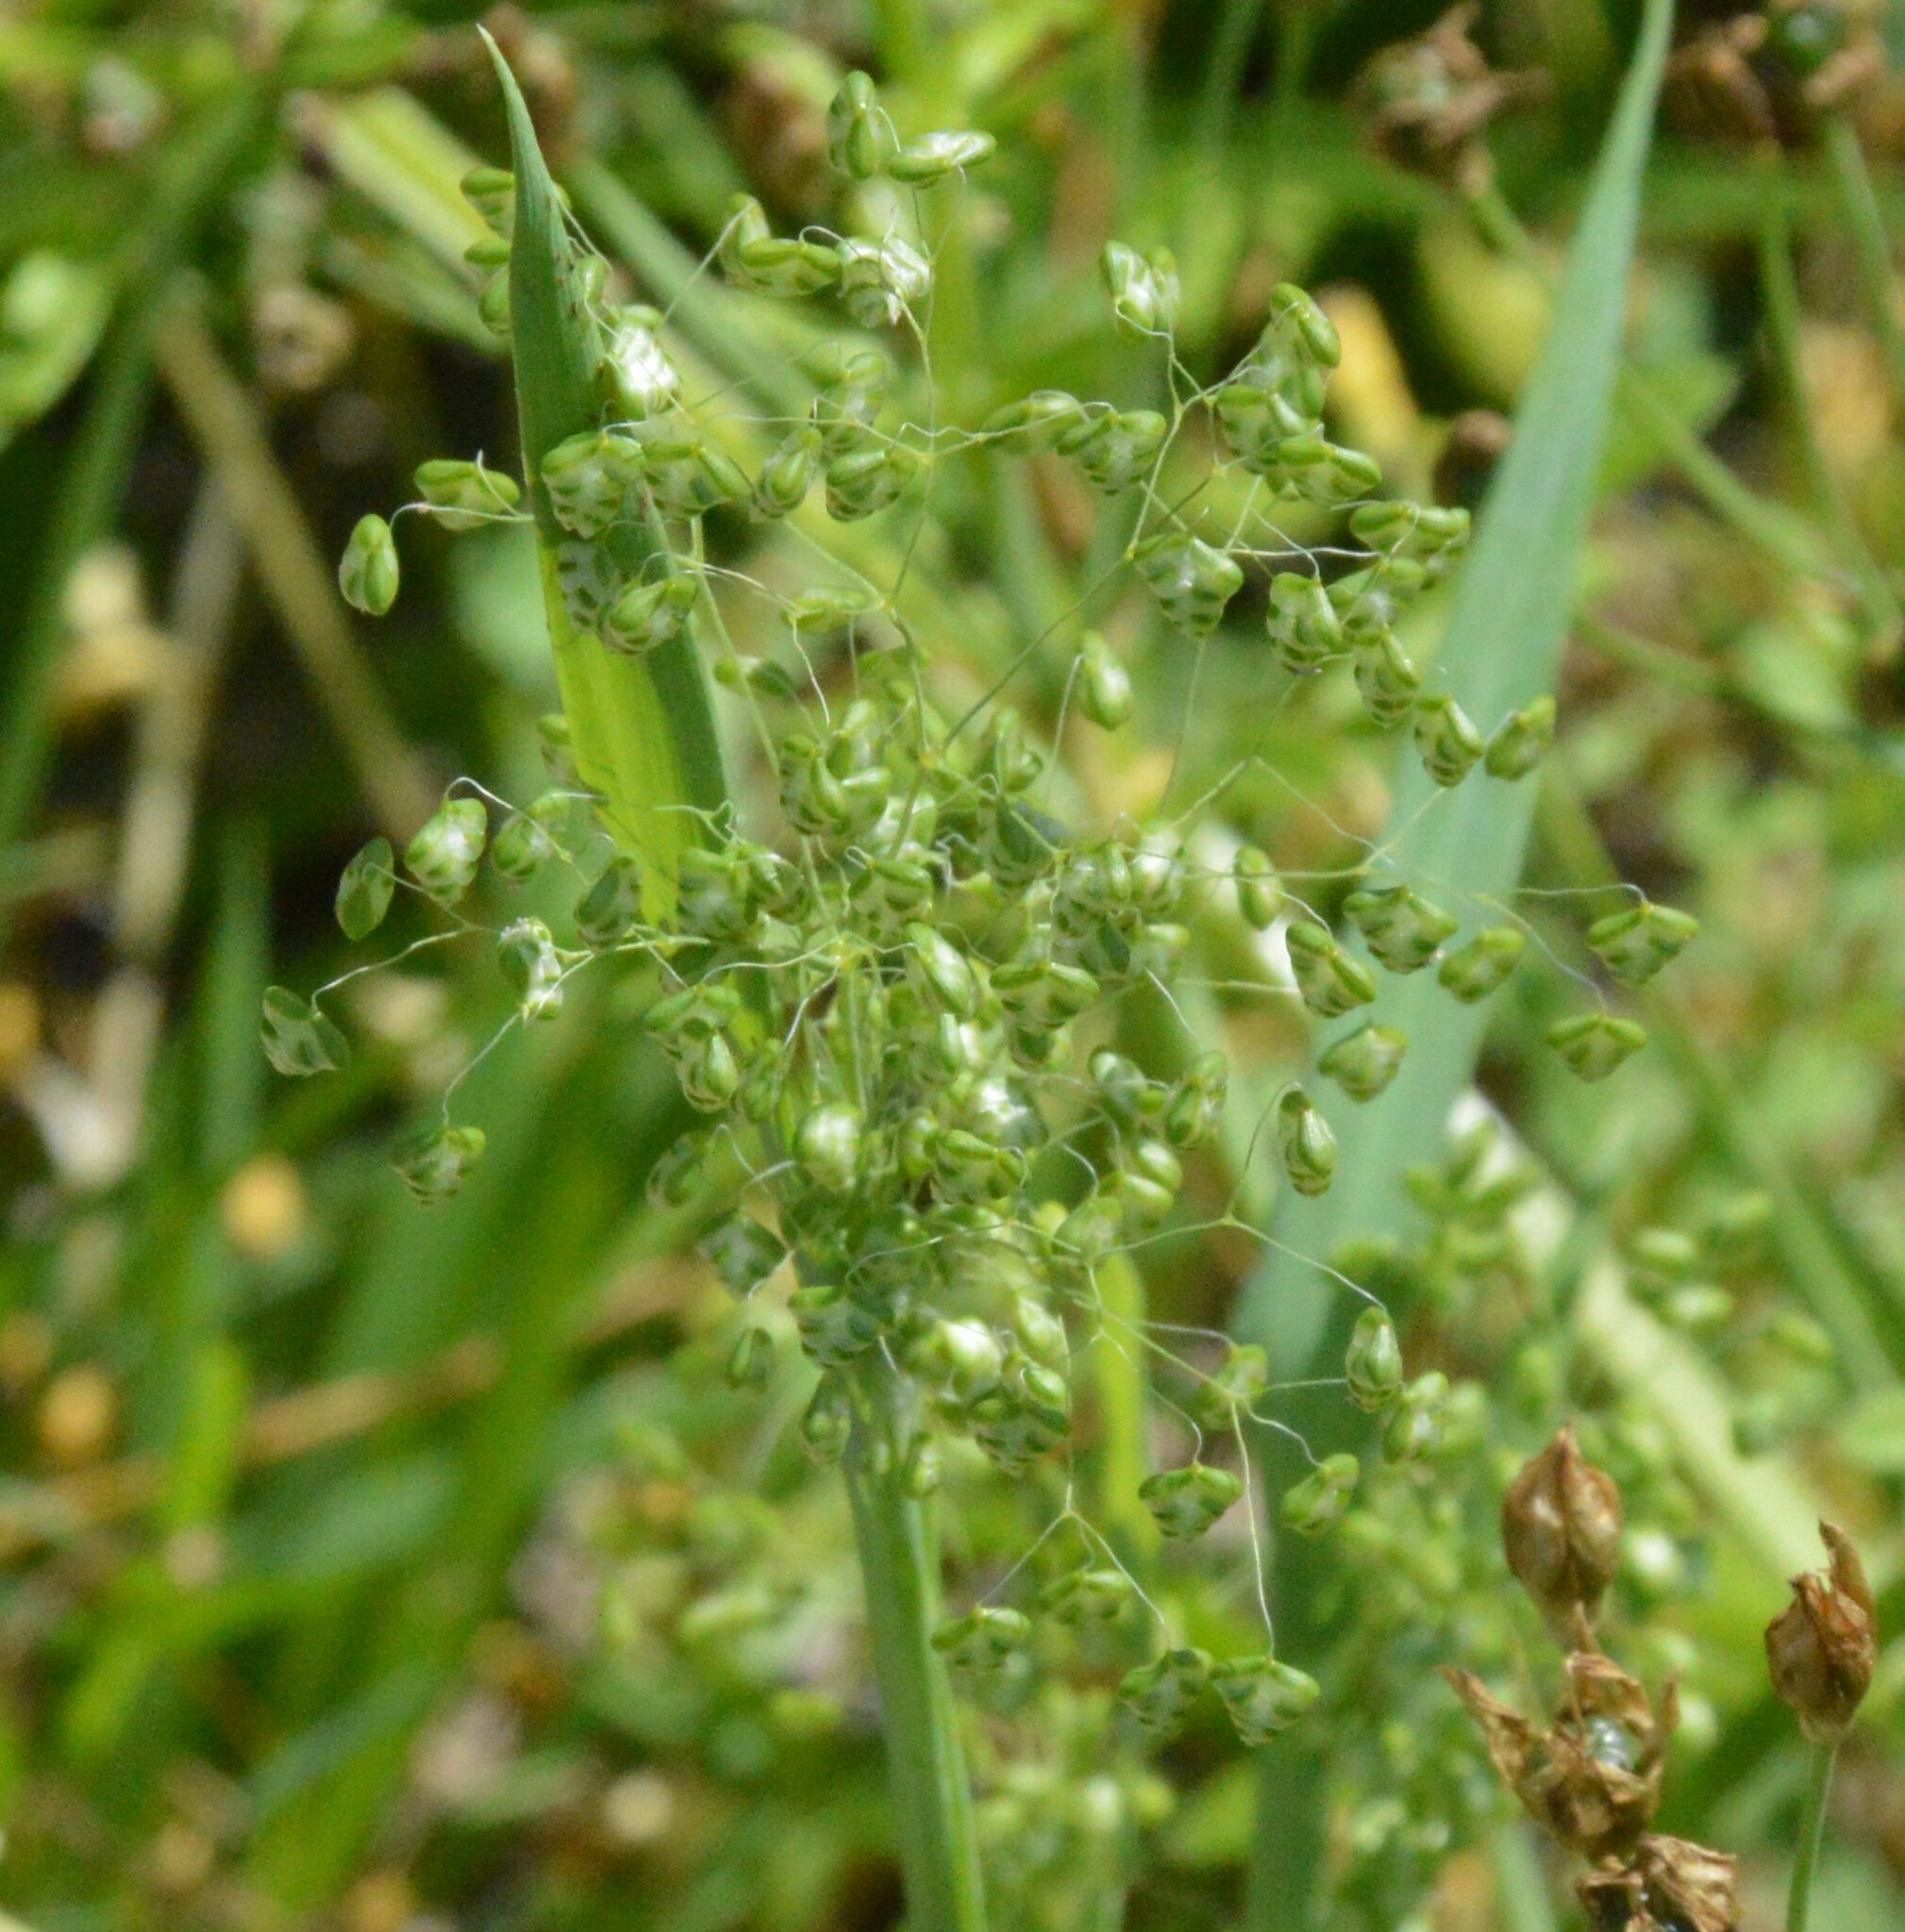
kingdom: Plantae
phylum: Tracheophyta
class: Liliopsida
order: Poales
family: Poaceae
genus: Briza
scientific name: Briza minor
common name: Lesser quaking-grass
